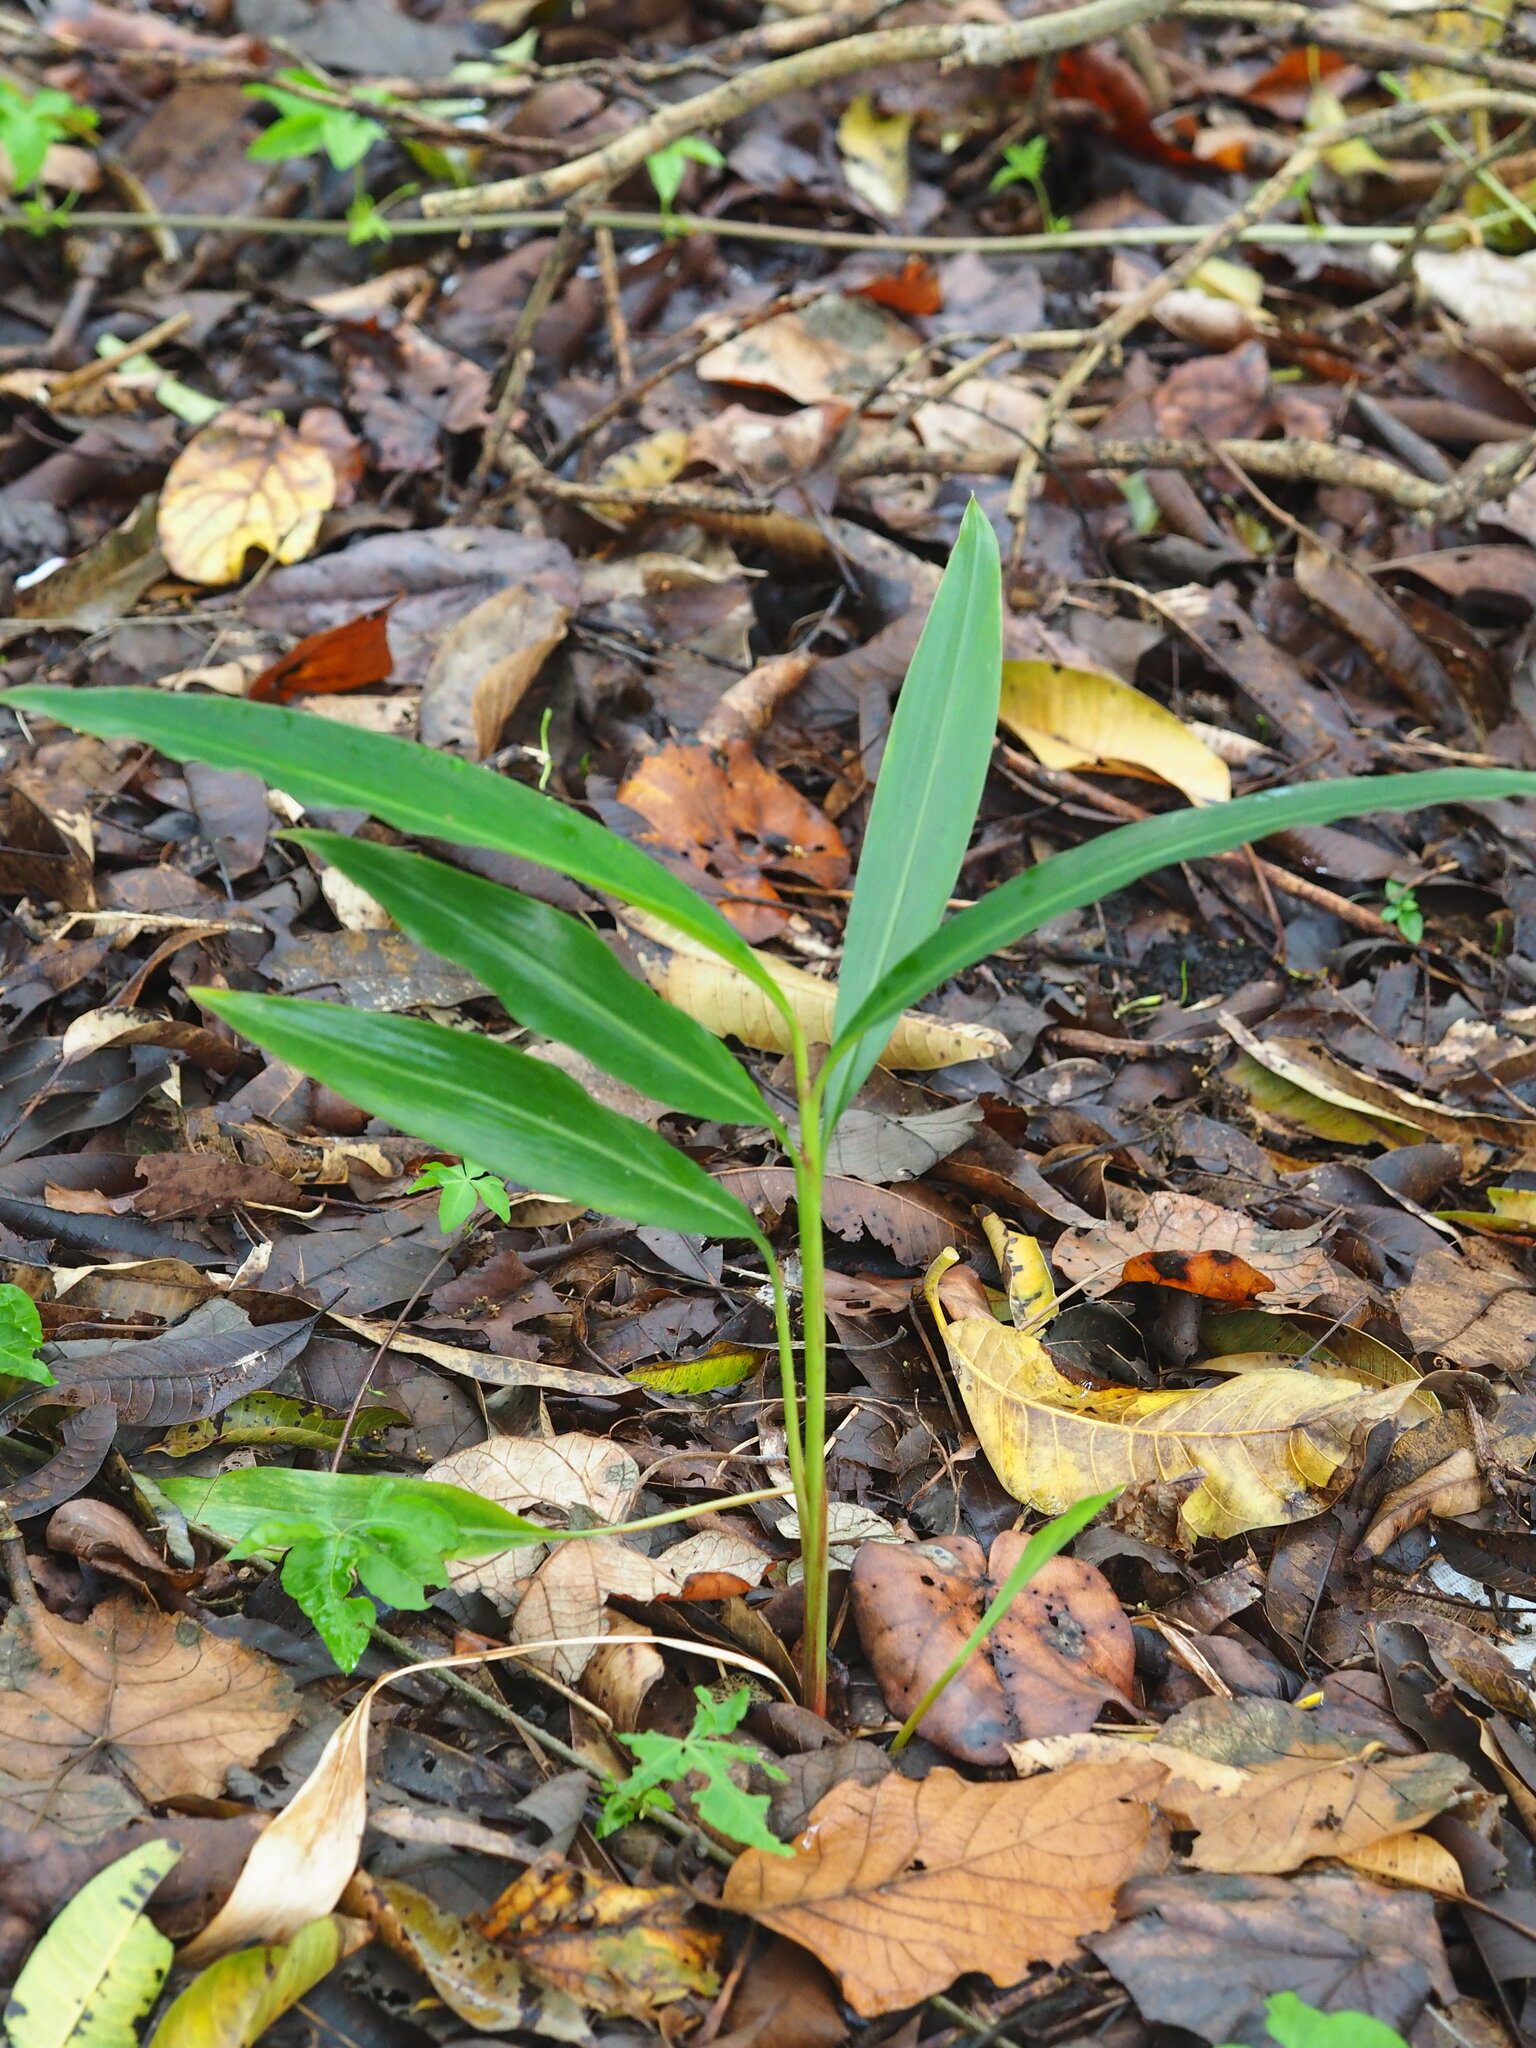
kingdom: Plantae
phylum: Tracheophyta
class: Liliopsida
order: Zingiberales
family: Zingiberaceae
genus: Alpinia
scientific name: Alpinia zerumbet
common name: Shellplant
